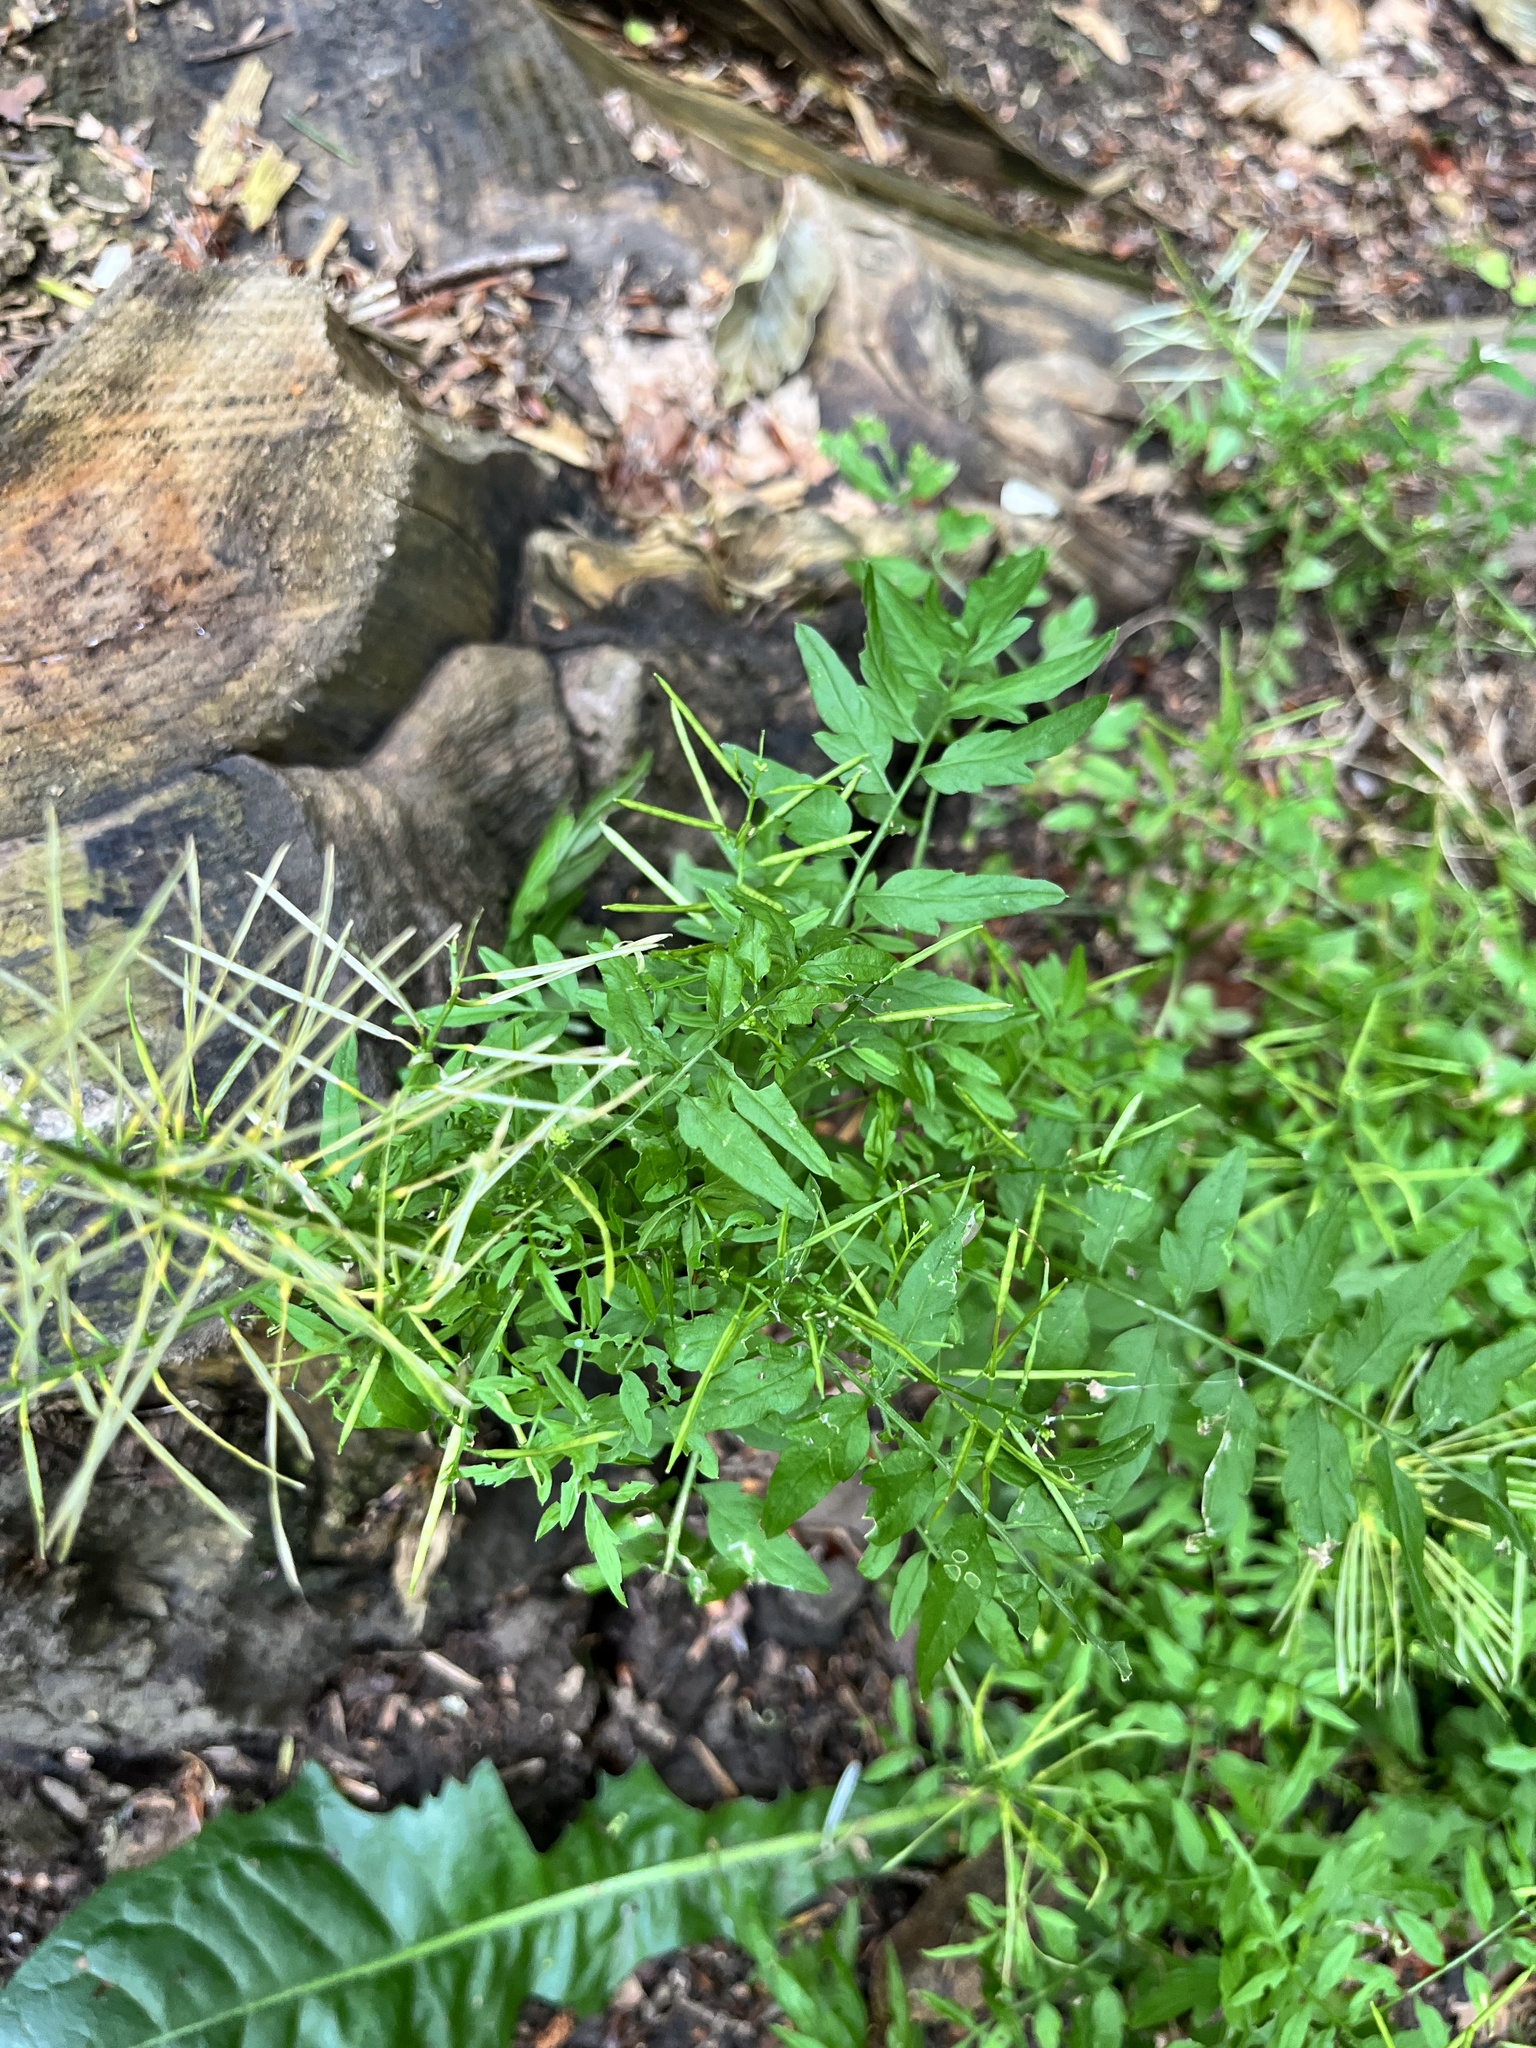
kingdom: Plantae
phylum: Tracheophyta
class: Magnoliopsida
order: Brassicales
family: Brassicaceae
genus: Cardamine
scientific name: Cardamine impatiens
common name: Narrow-leaved bitter-cress
